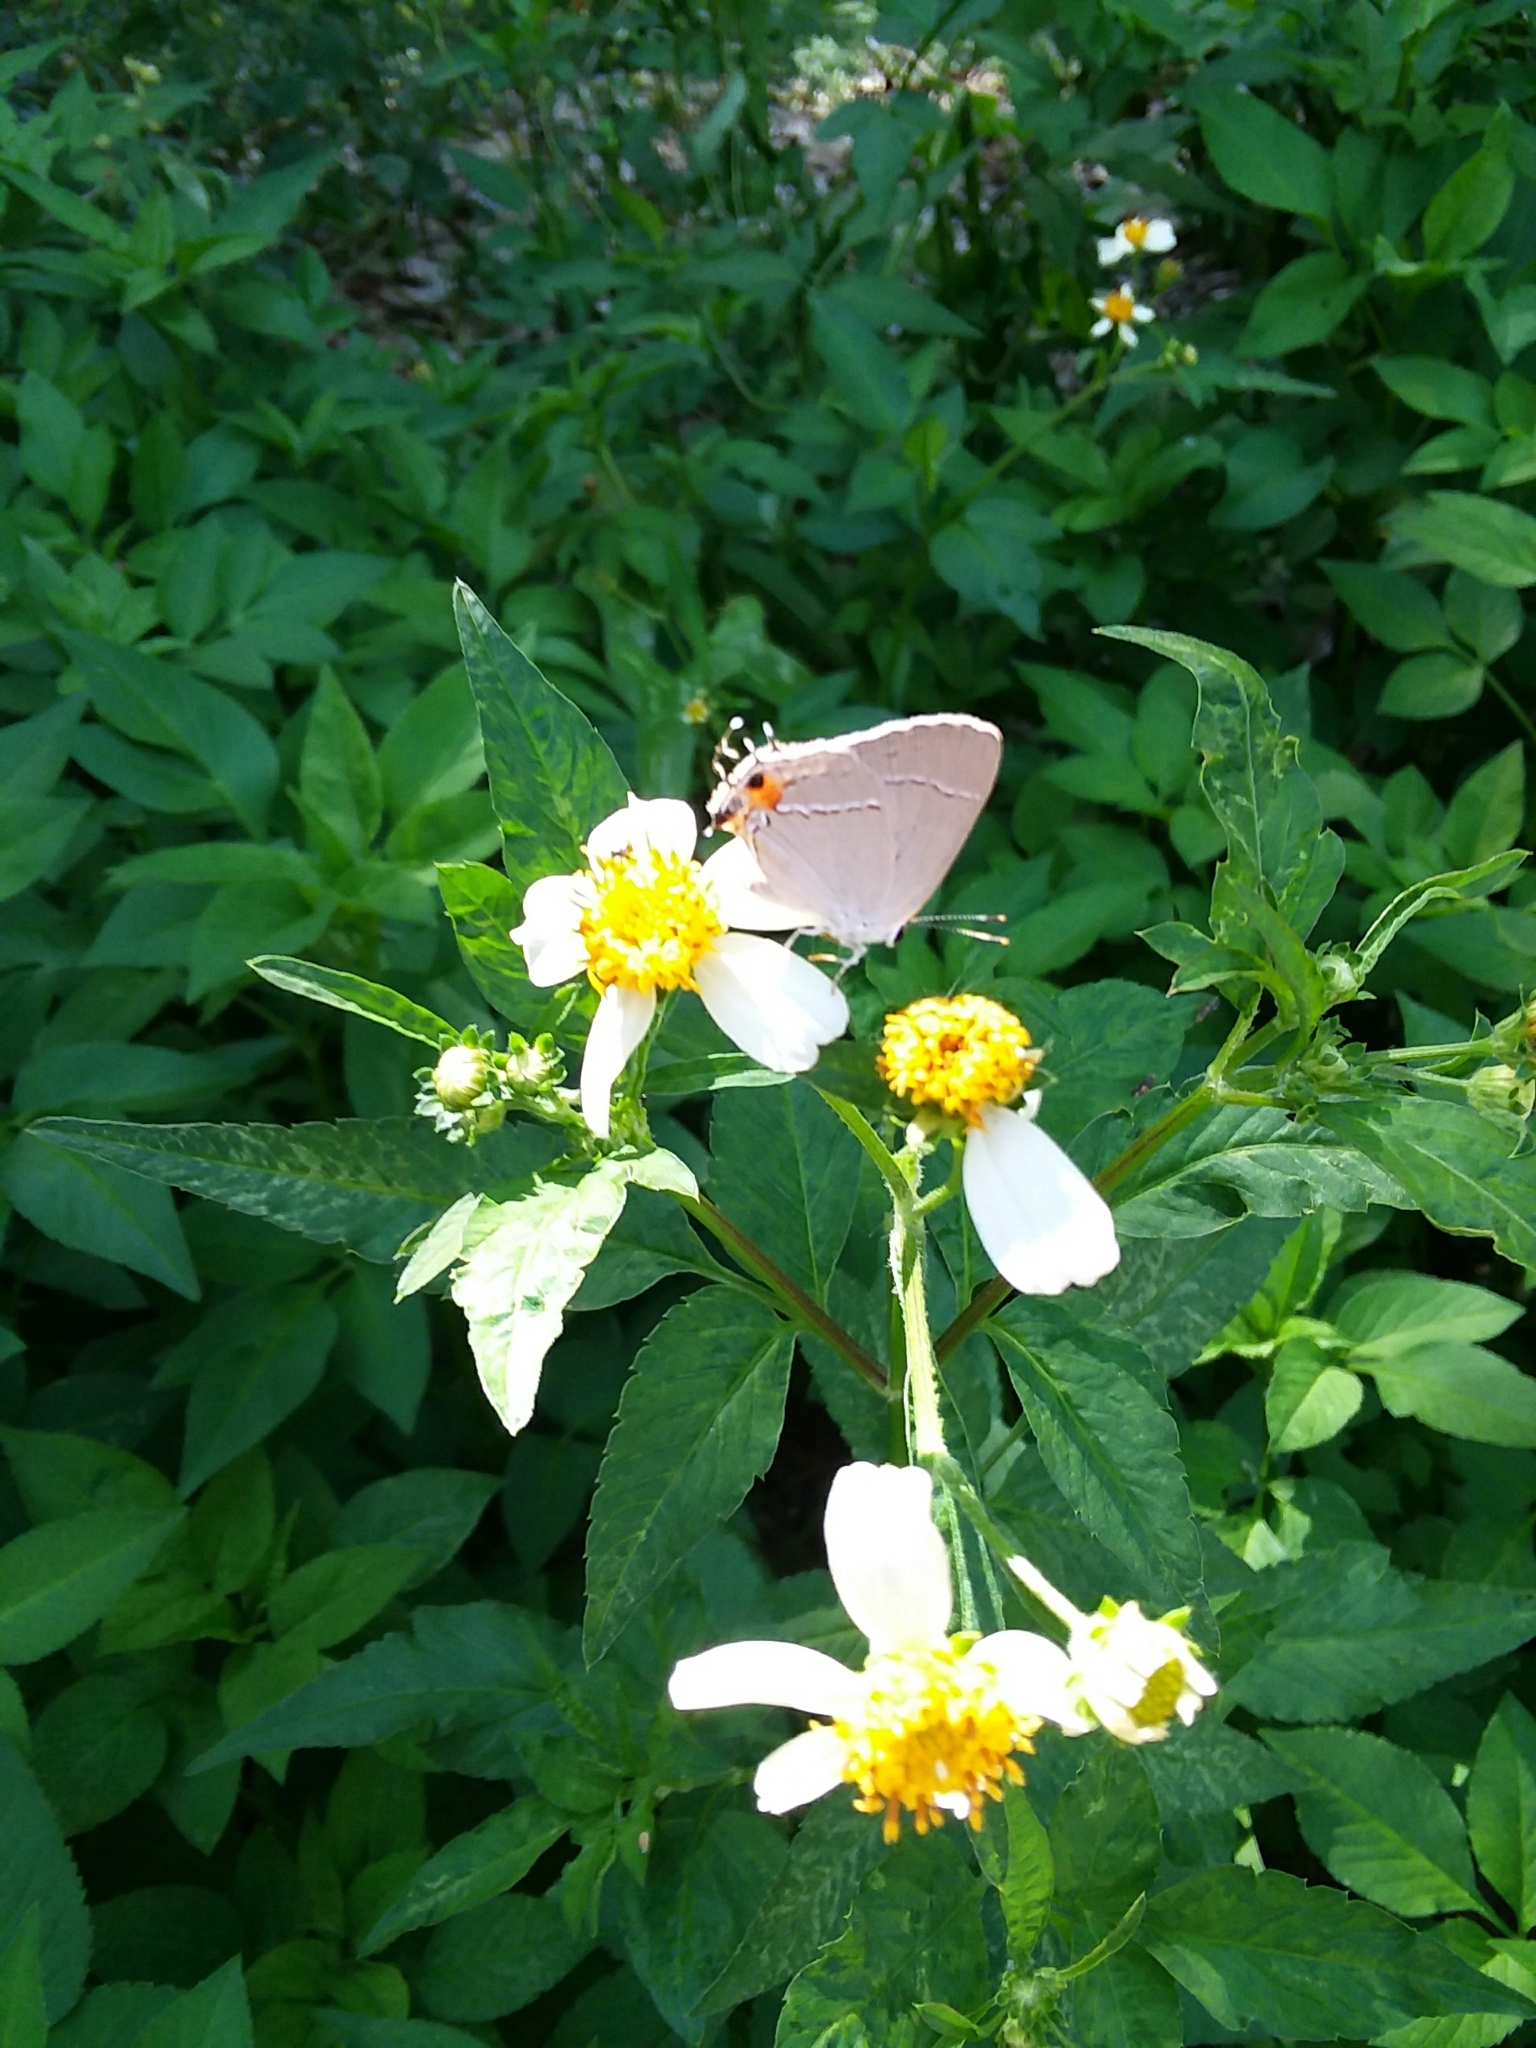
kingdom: Animalia
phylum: Arthropoda
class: Insecta
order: Lepidoptera
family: Lycaenidae
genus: Strymon
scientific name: Strymon melinus
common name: Gray hairstreak
